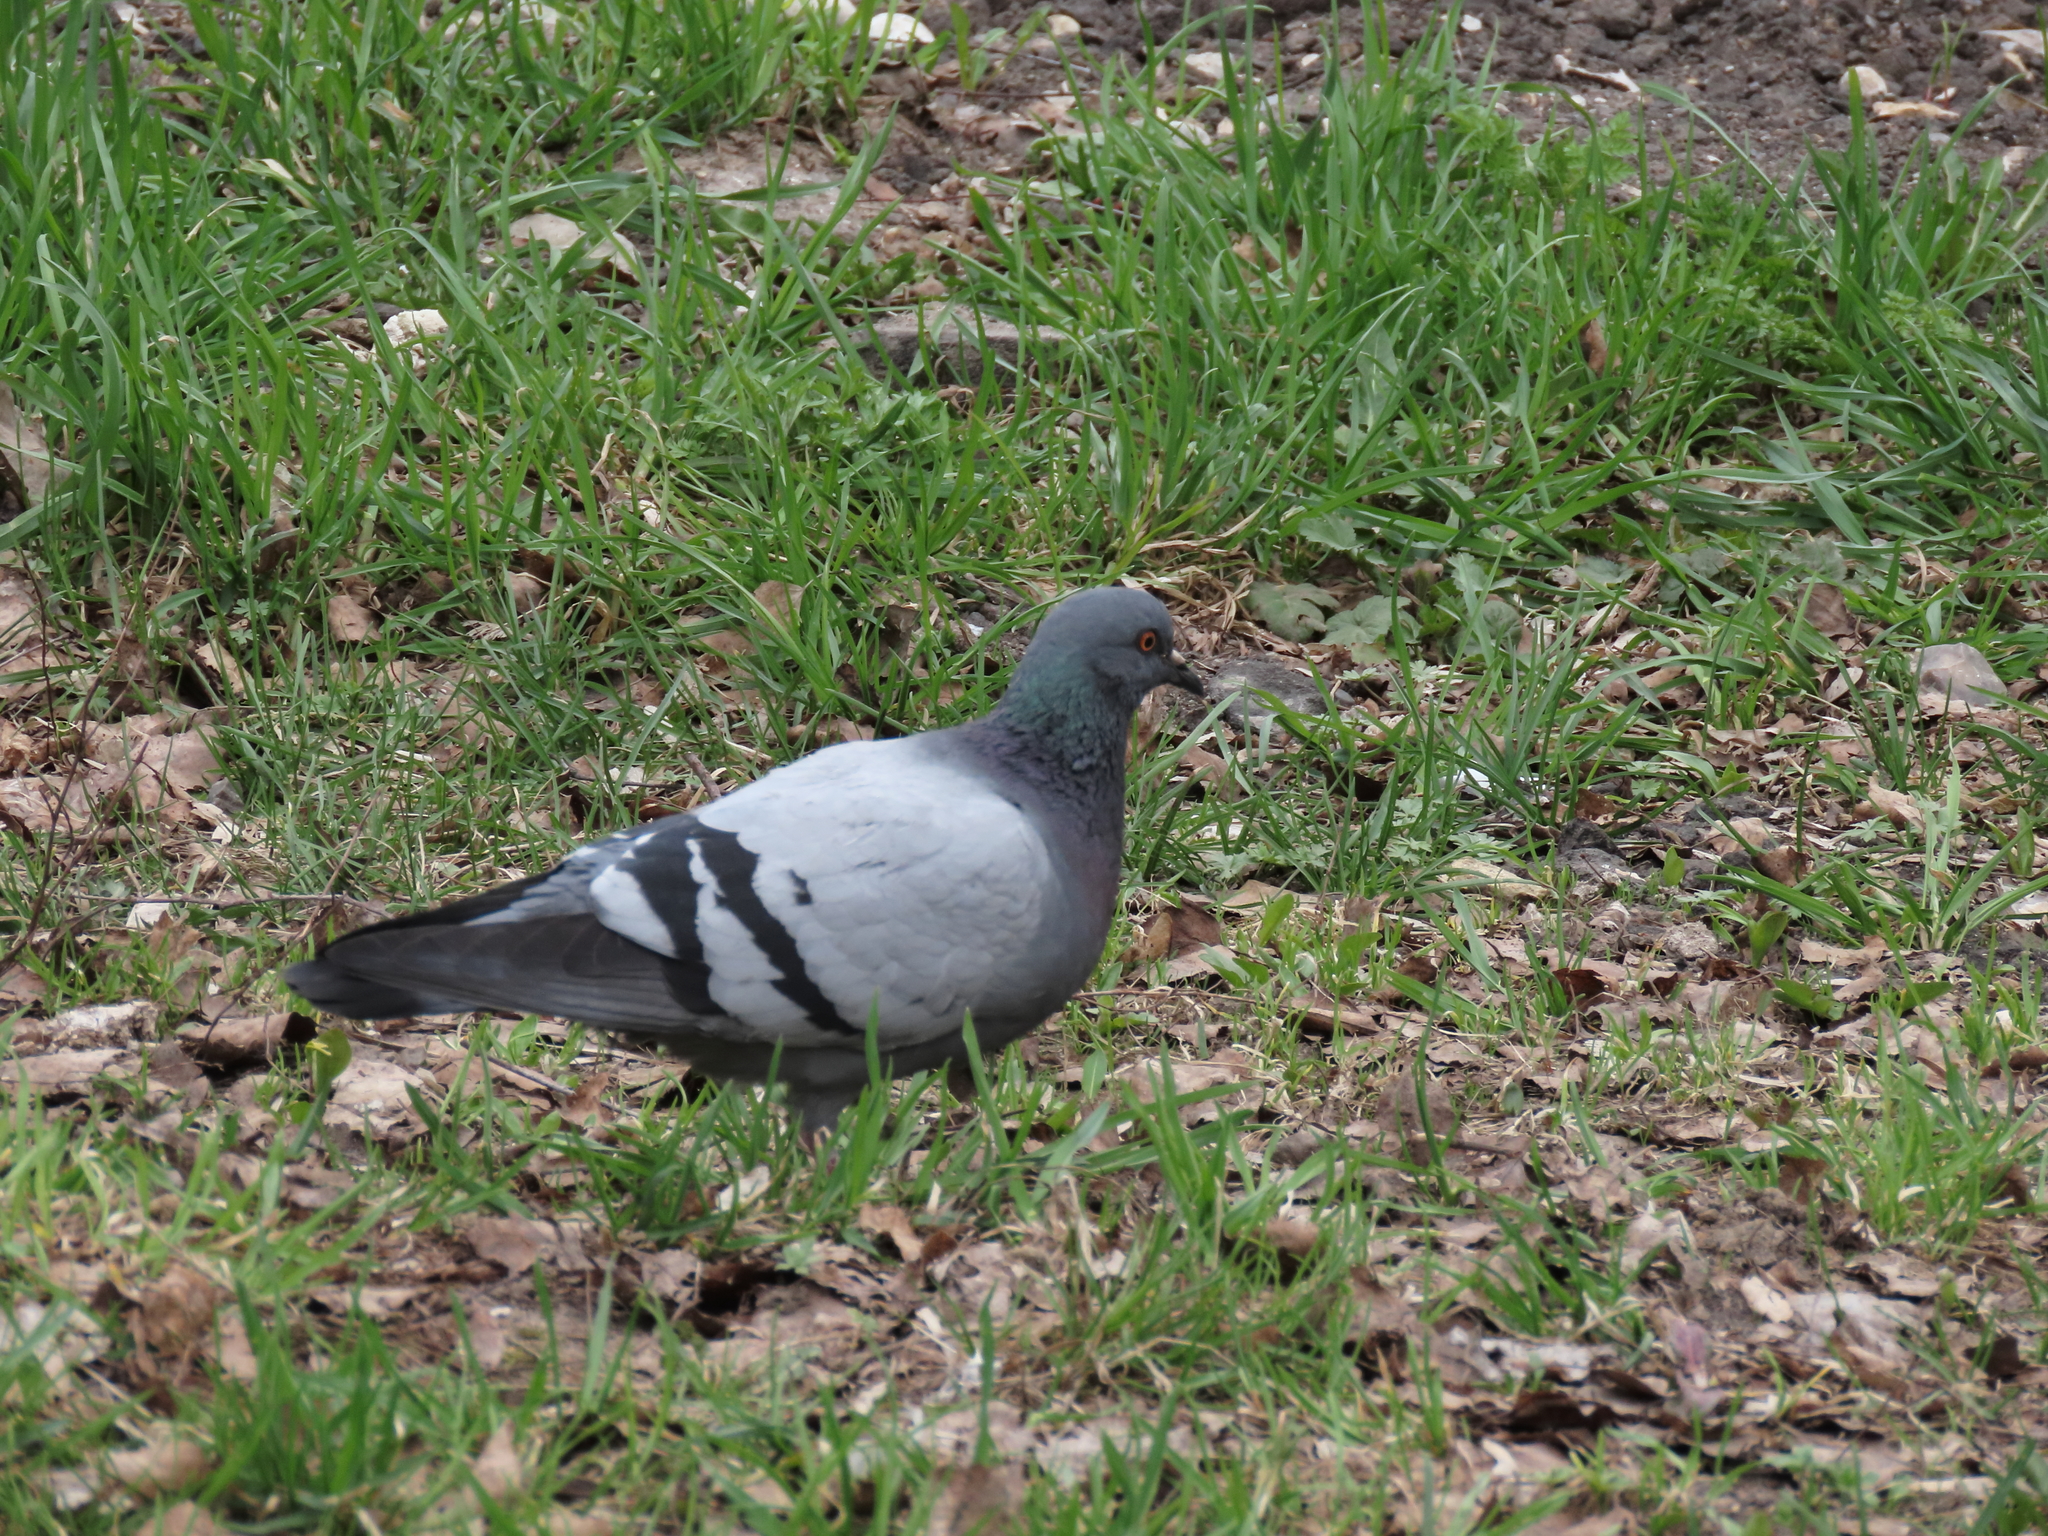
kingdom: Animalia
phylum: Chordata
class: Aves
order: Columbiformes
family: Columbidae
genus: Columba
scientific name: Columba livia
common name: Rock pigeon
